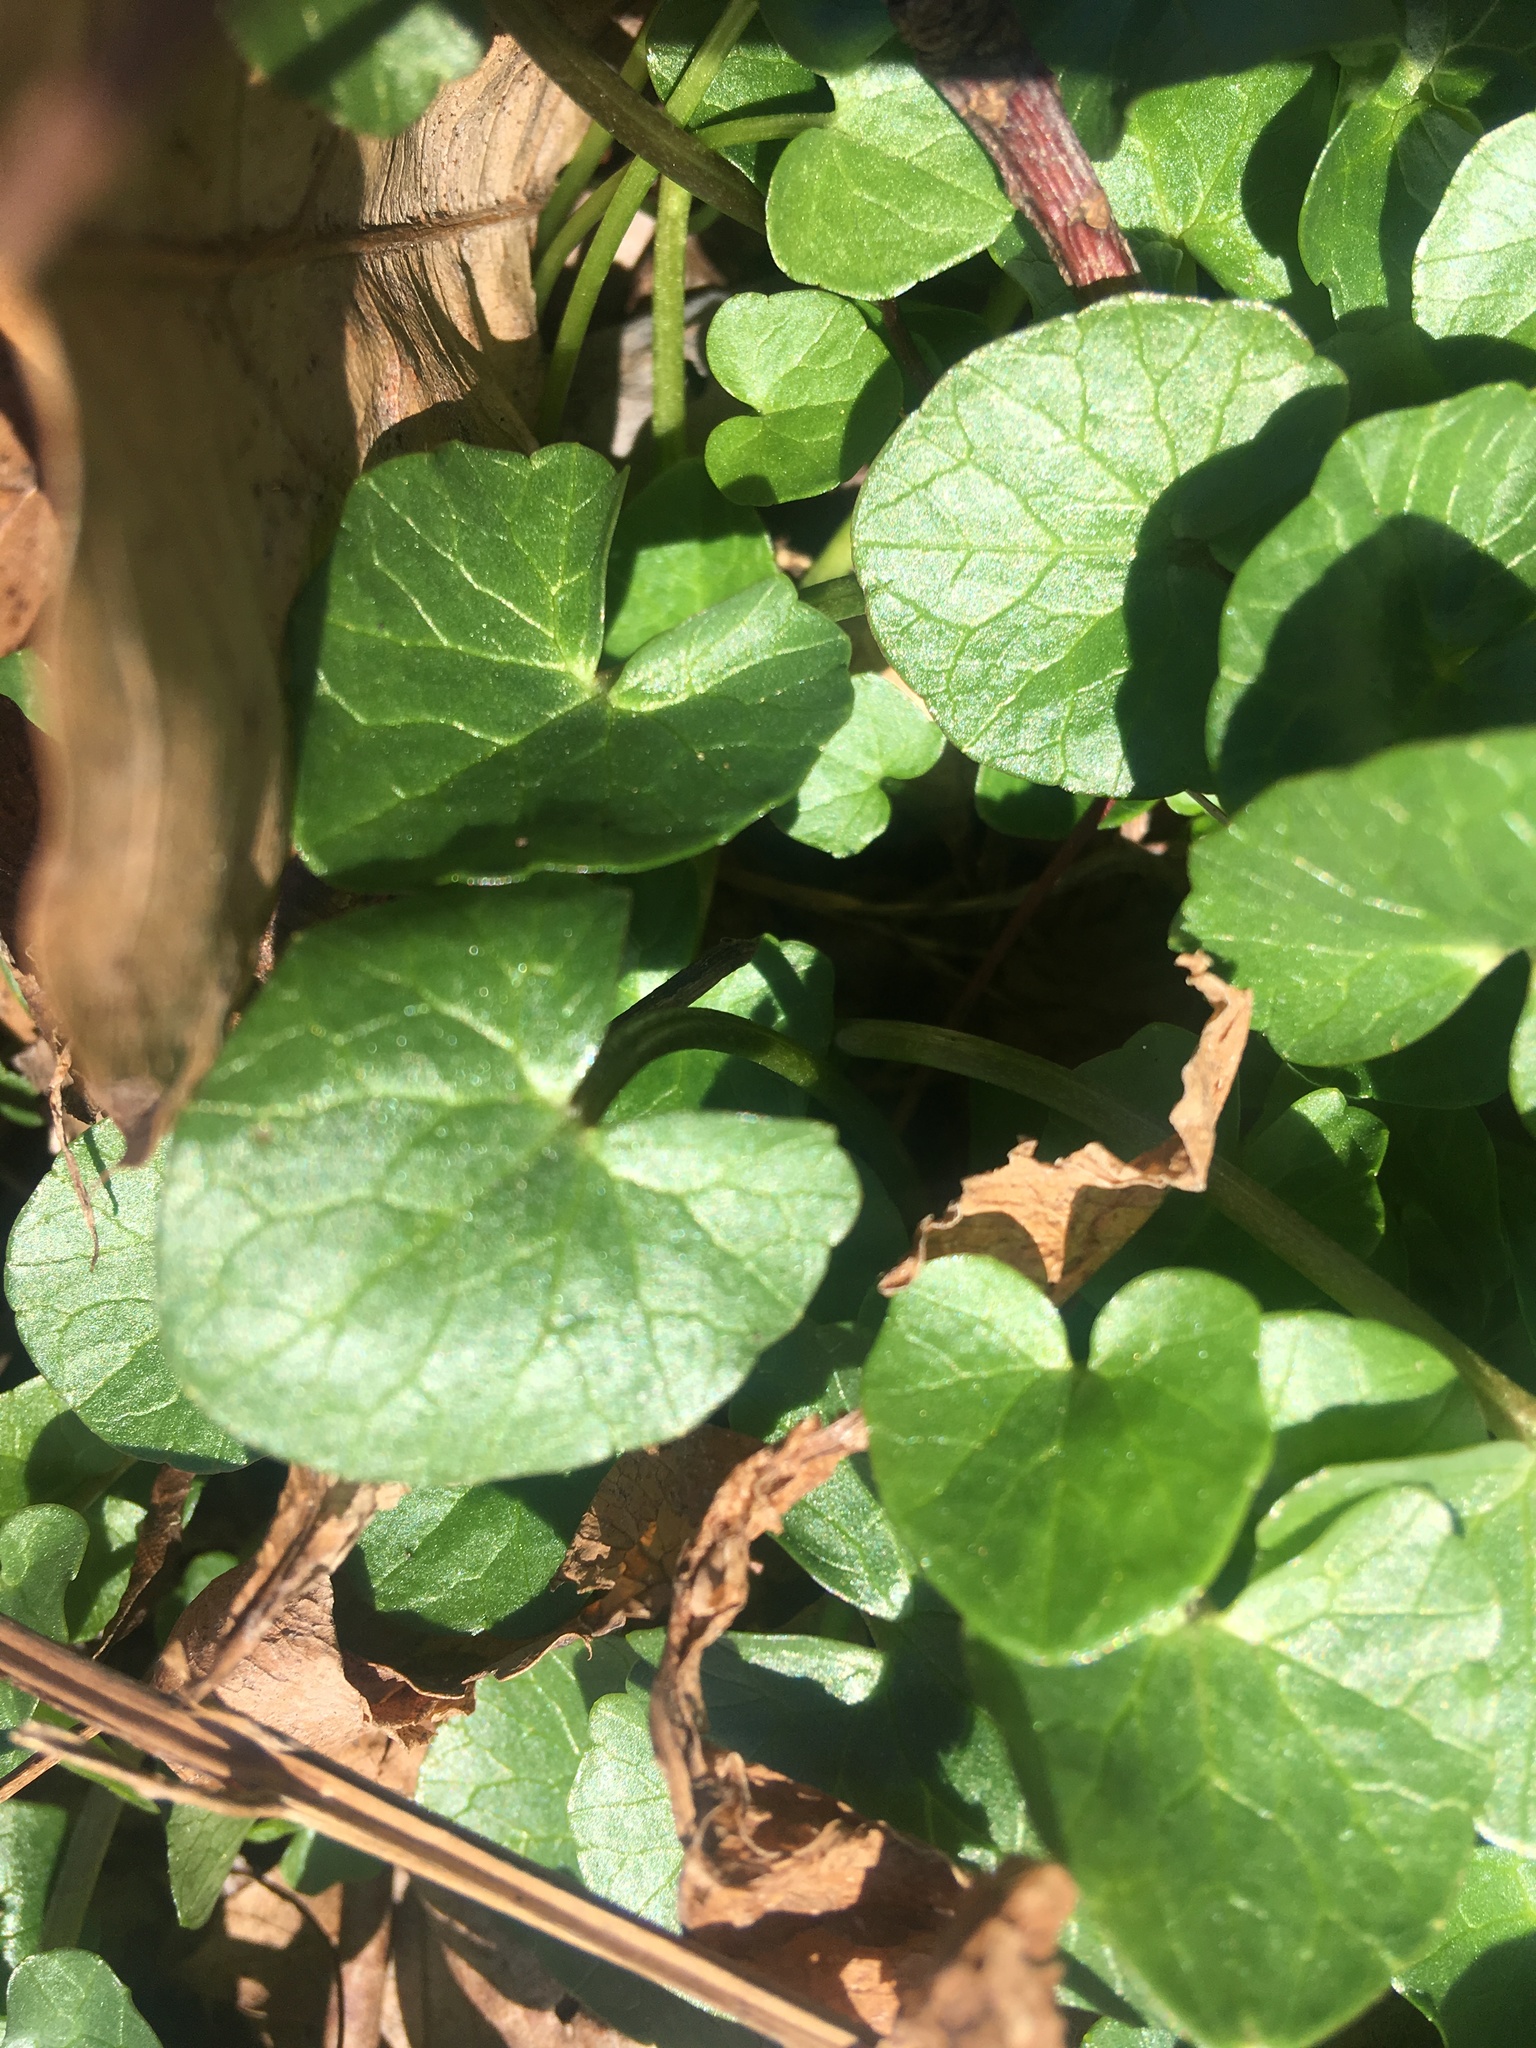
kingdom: Plantae
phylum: Tracheophyta
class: Magnoliopsida
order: Ranunculales
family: Ranunculaceae
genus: Ficaria
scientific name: Ficaria verna
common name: Lesser celandine
